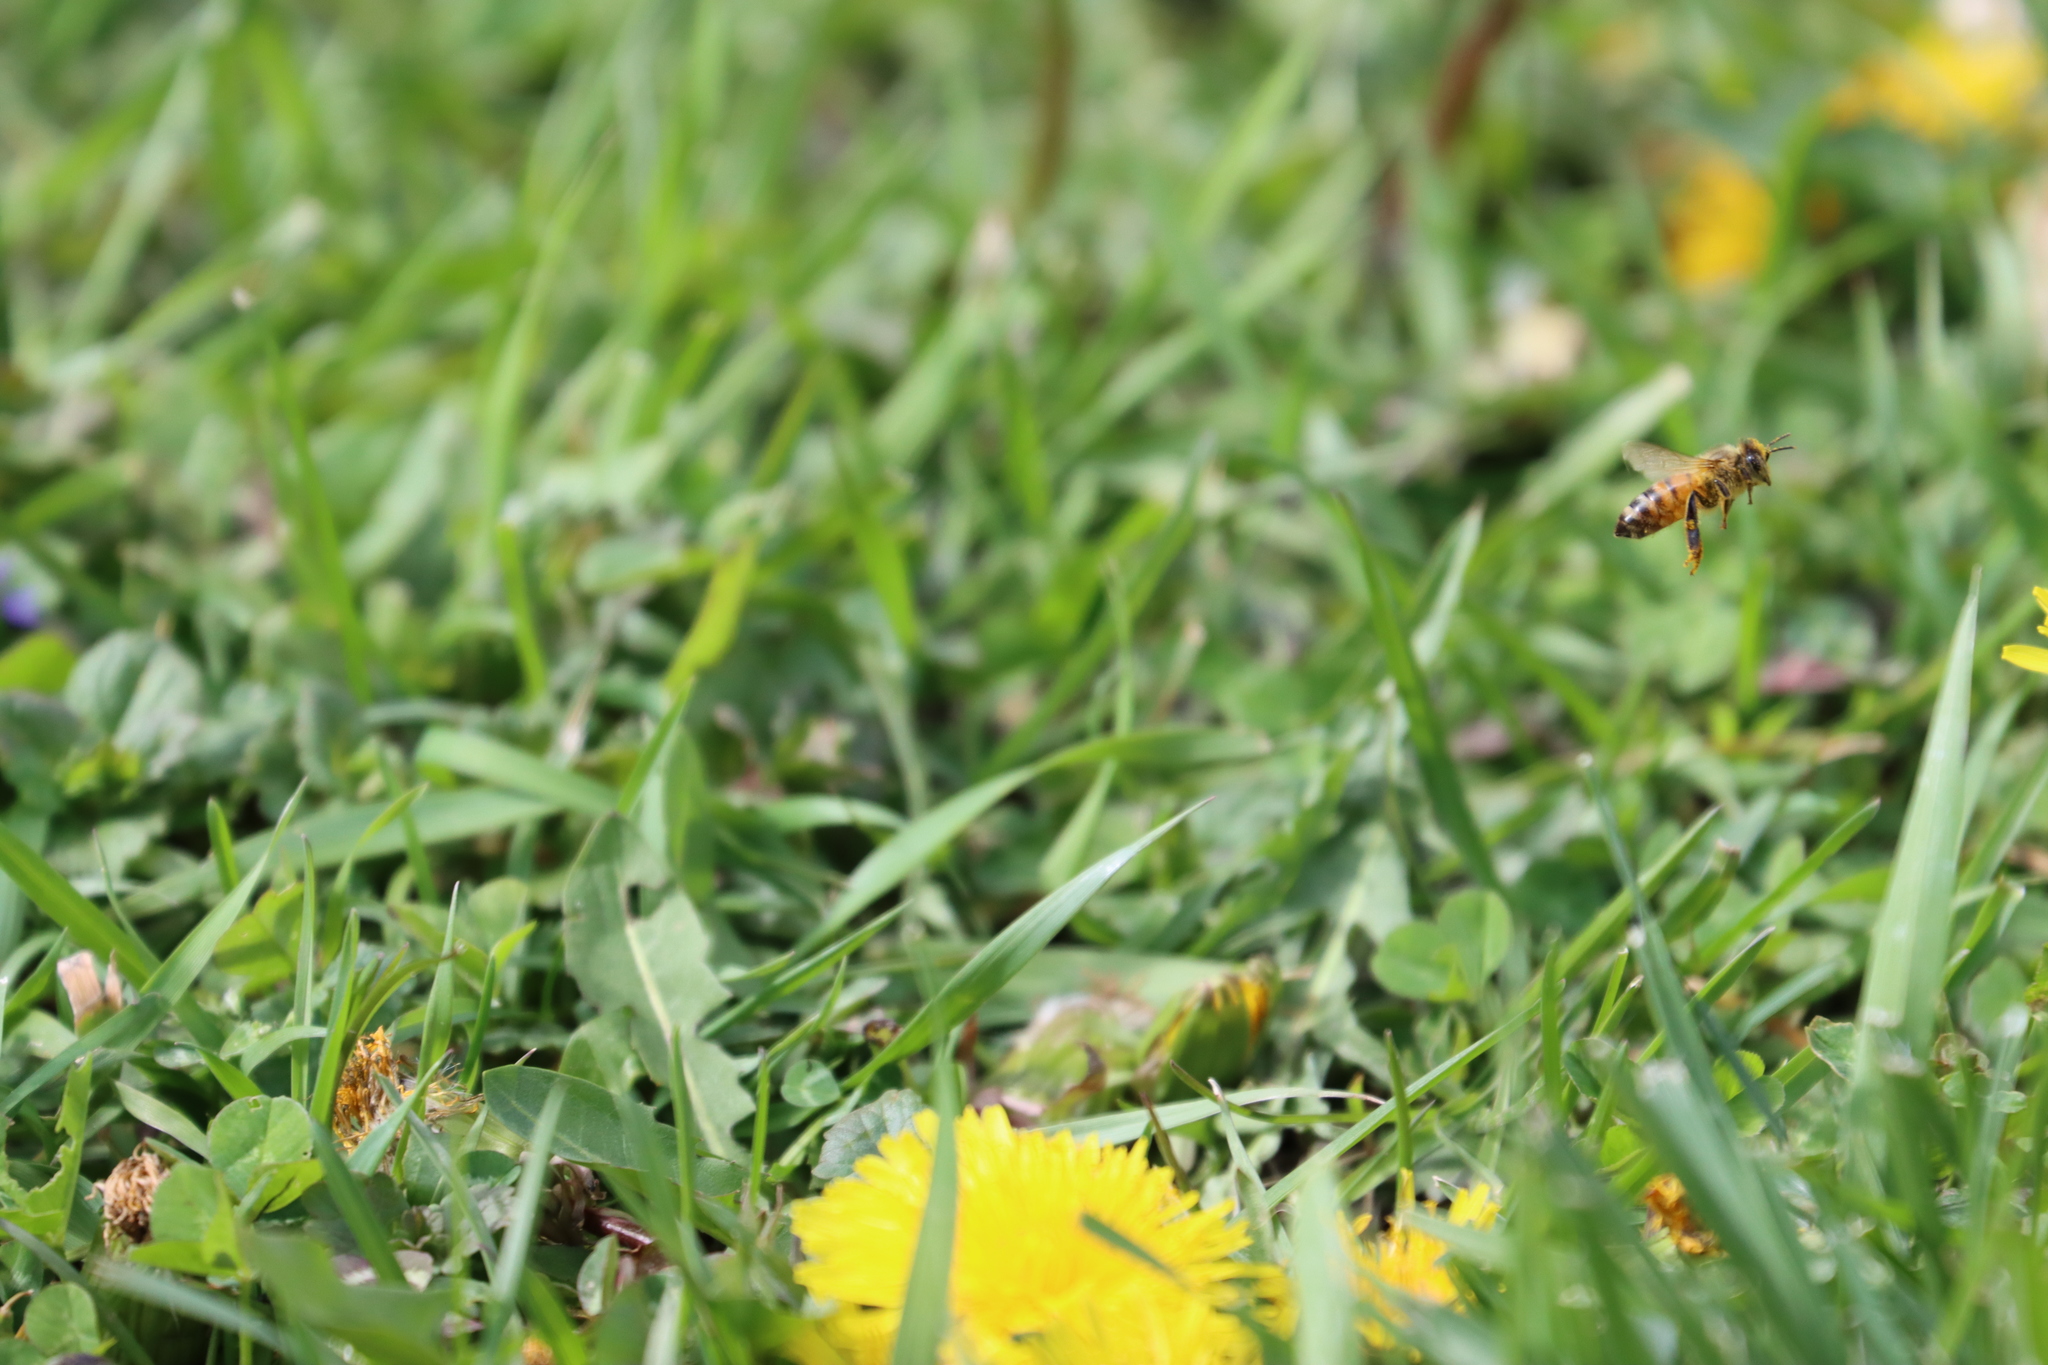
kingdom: Animalia
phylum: Arthropoda
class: Insecta
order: Hymenoptera
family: Apidae
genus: Apis
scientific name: Apis mellifera
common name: Honey bee
